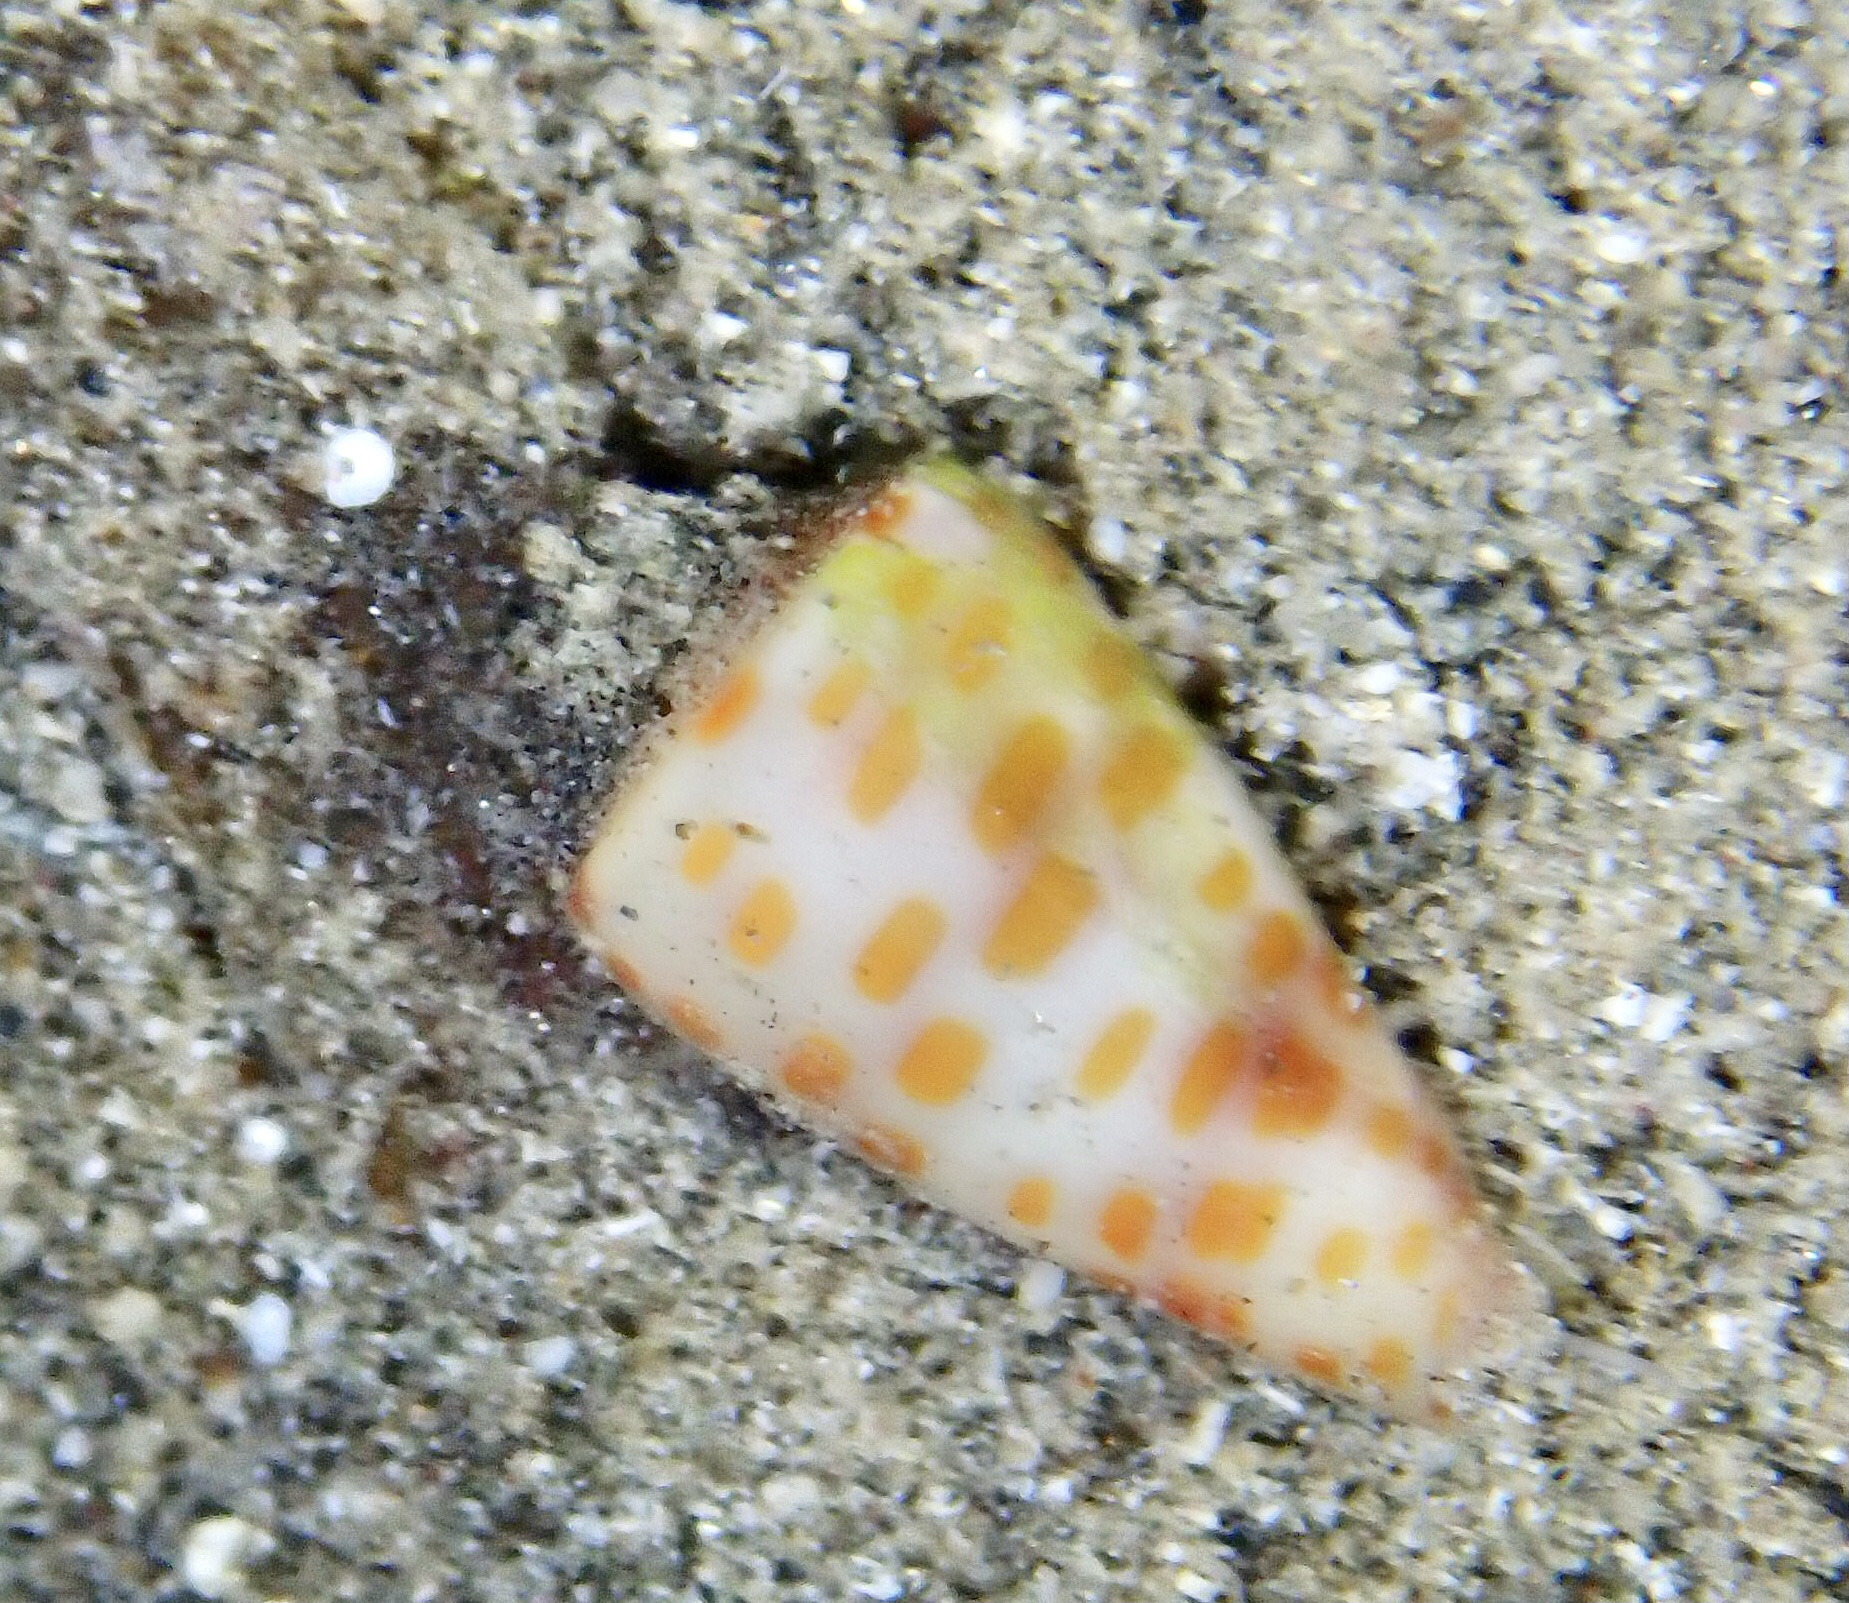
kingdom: Animalia
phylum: Mollusca
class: Gastropoda
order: Neogastropoda
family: Conidae
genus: Conus
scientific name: Conus tessulatus
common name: Tessellate cone
